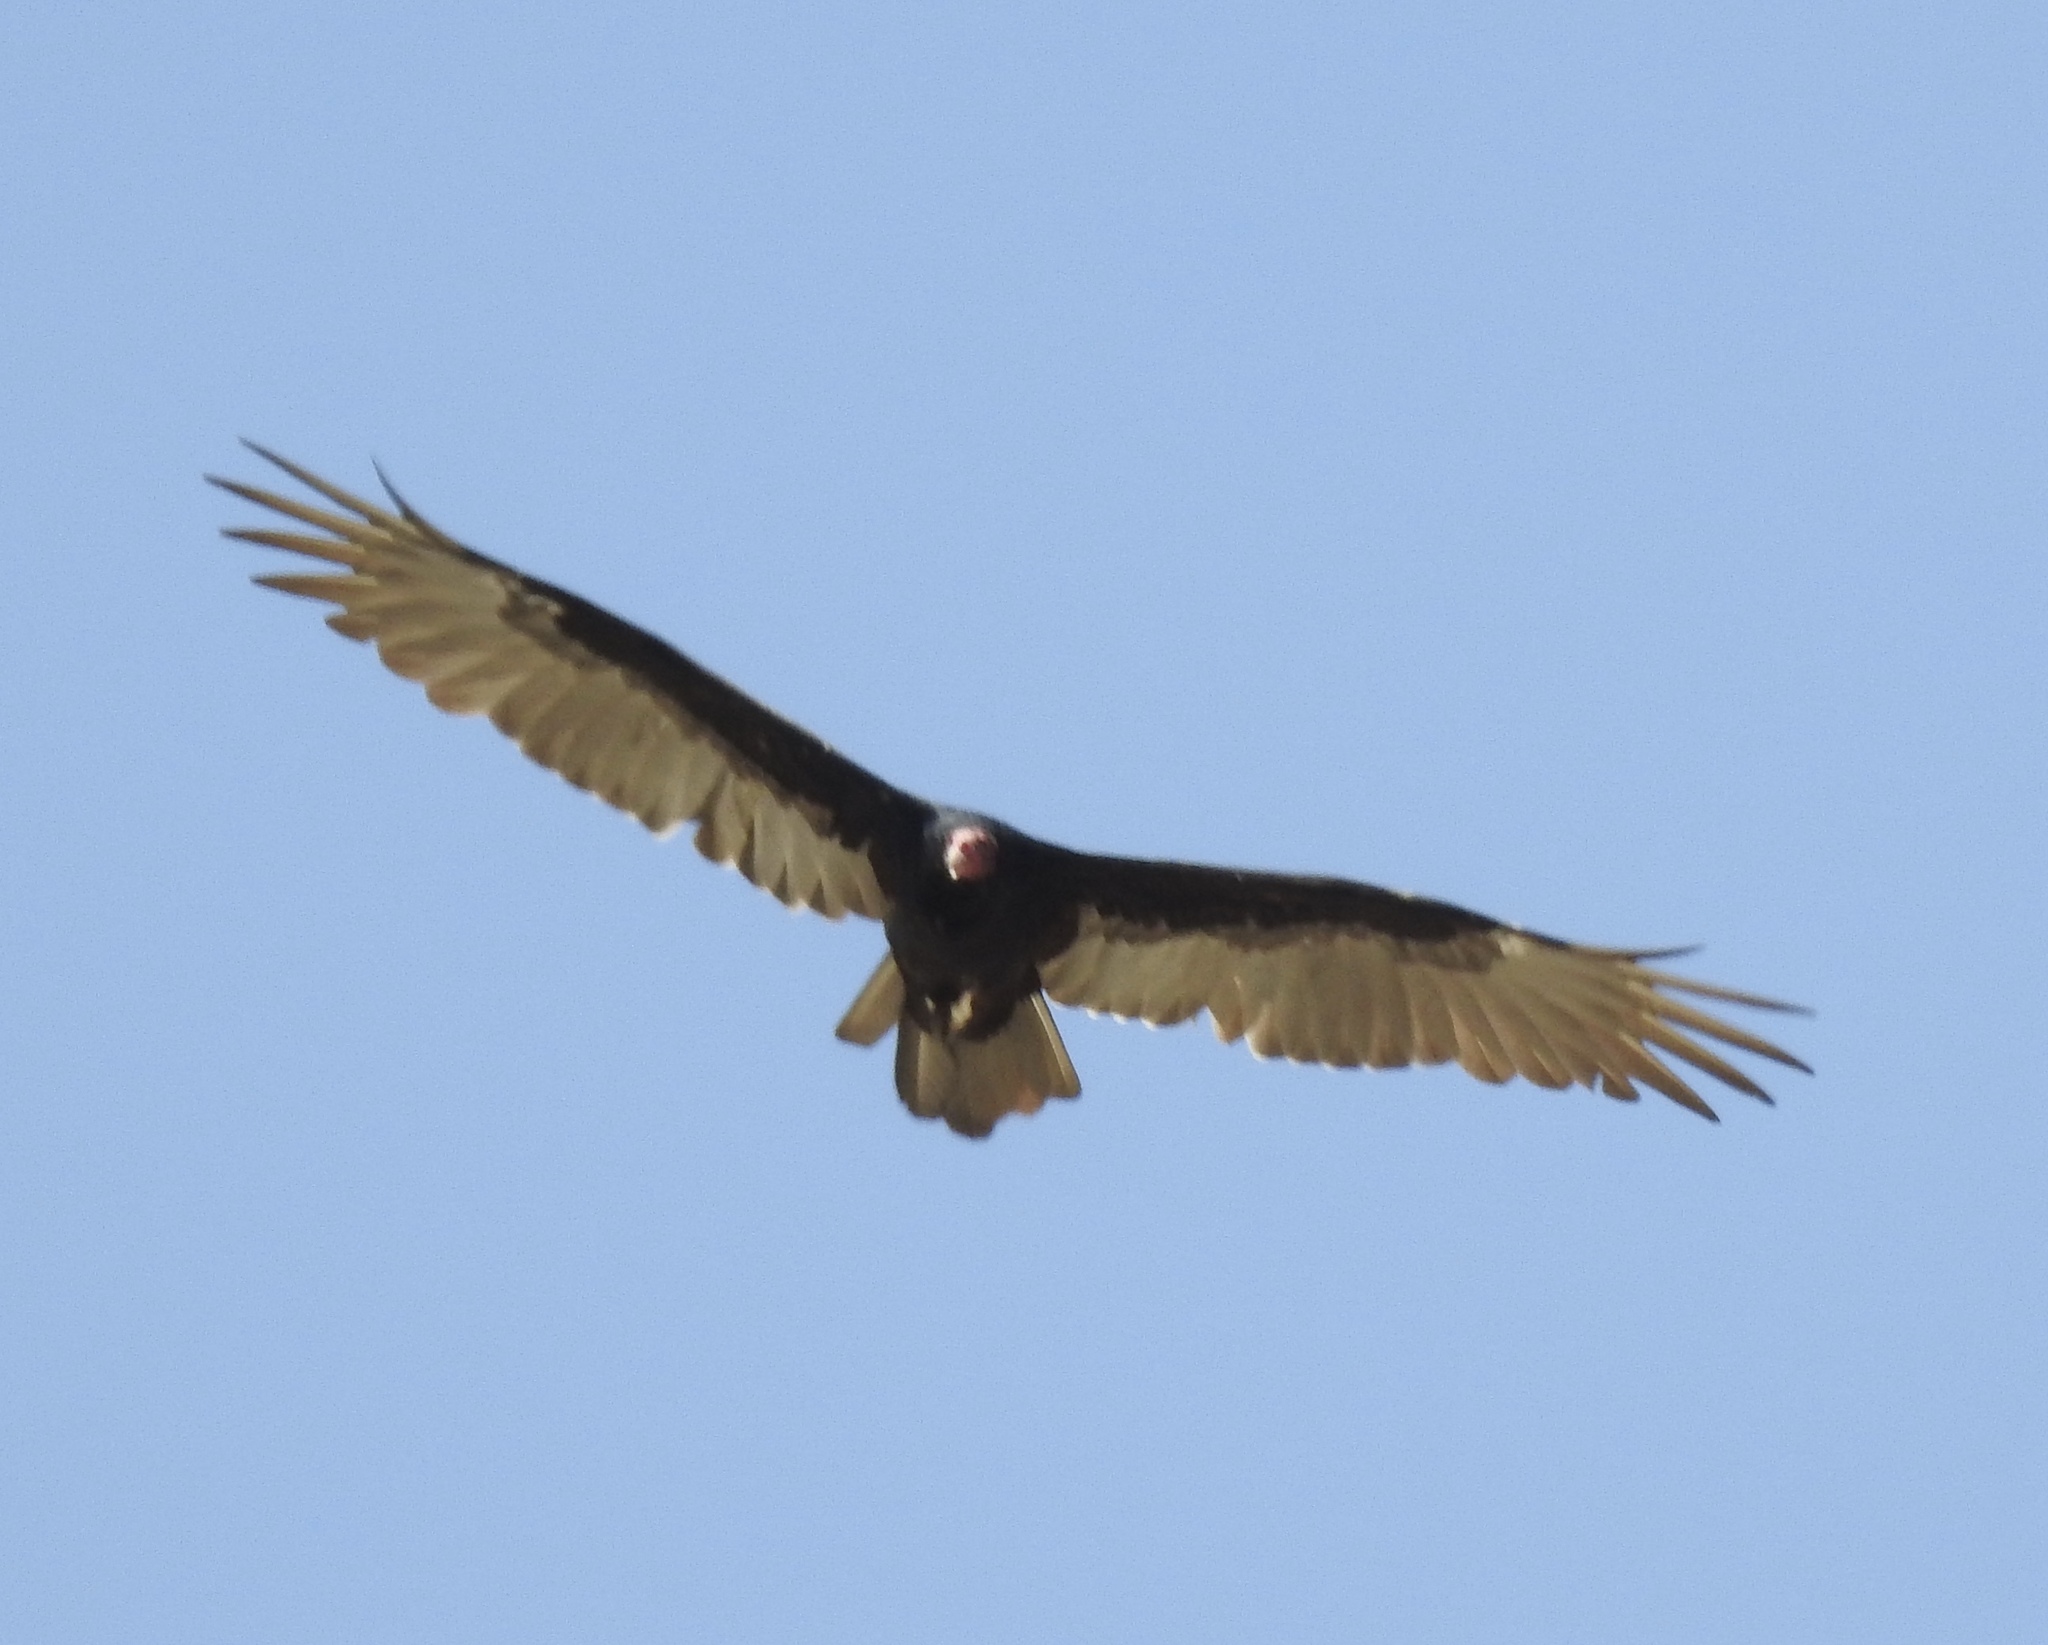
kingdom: Animalia
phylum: Chordata
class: Aves
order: Accipitriformes
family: Cathartidae
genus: Cathartes
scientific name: Cathartes aura
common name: Turkey vulture
